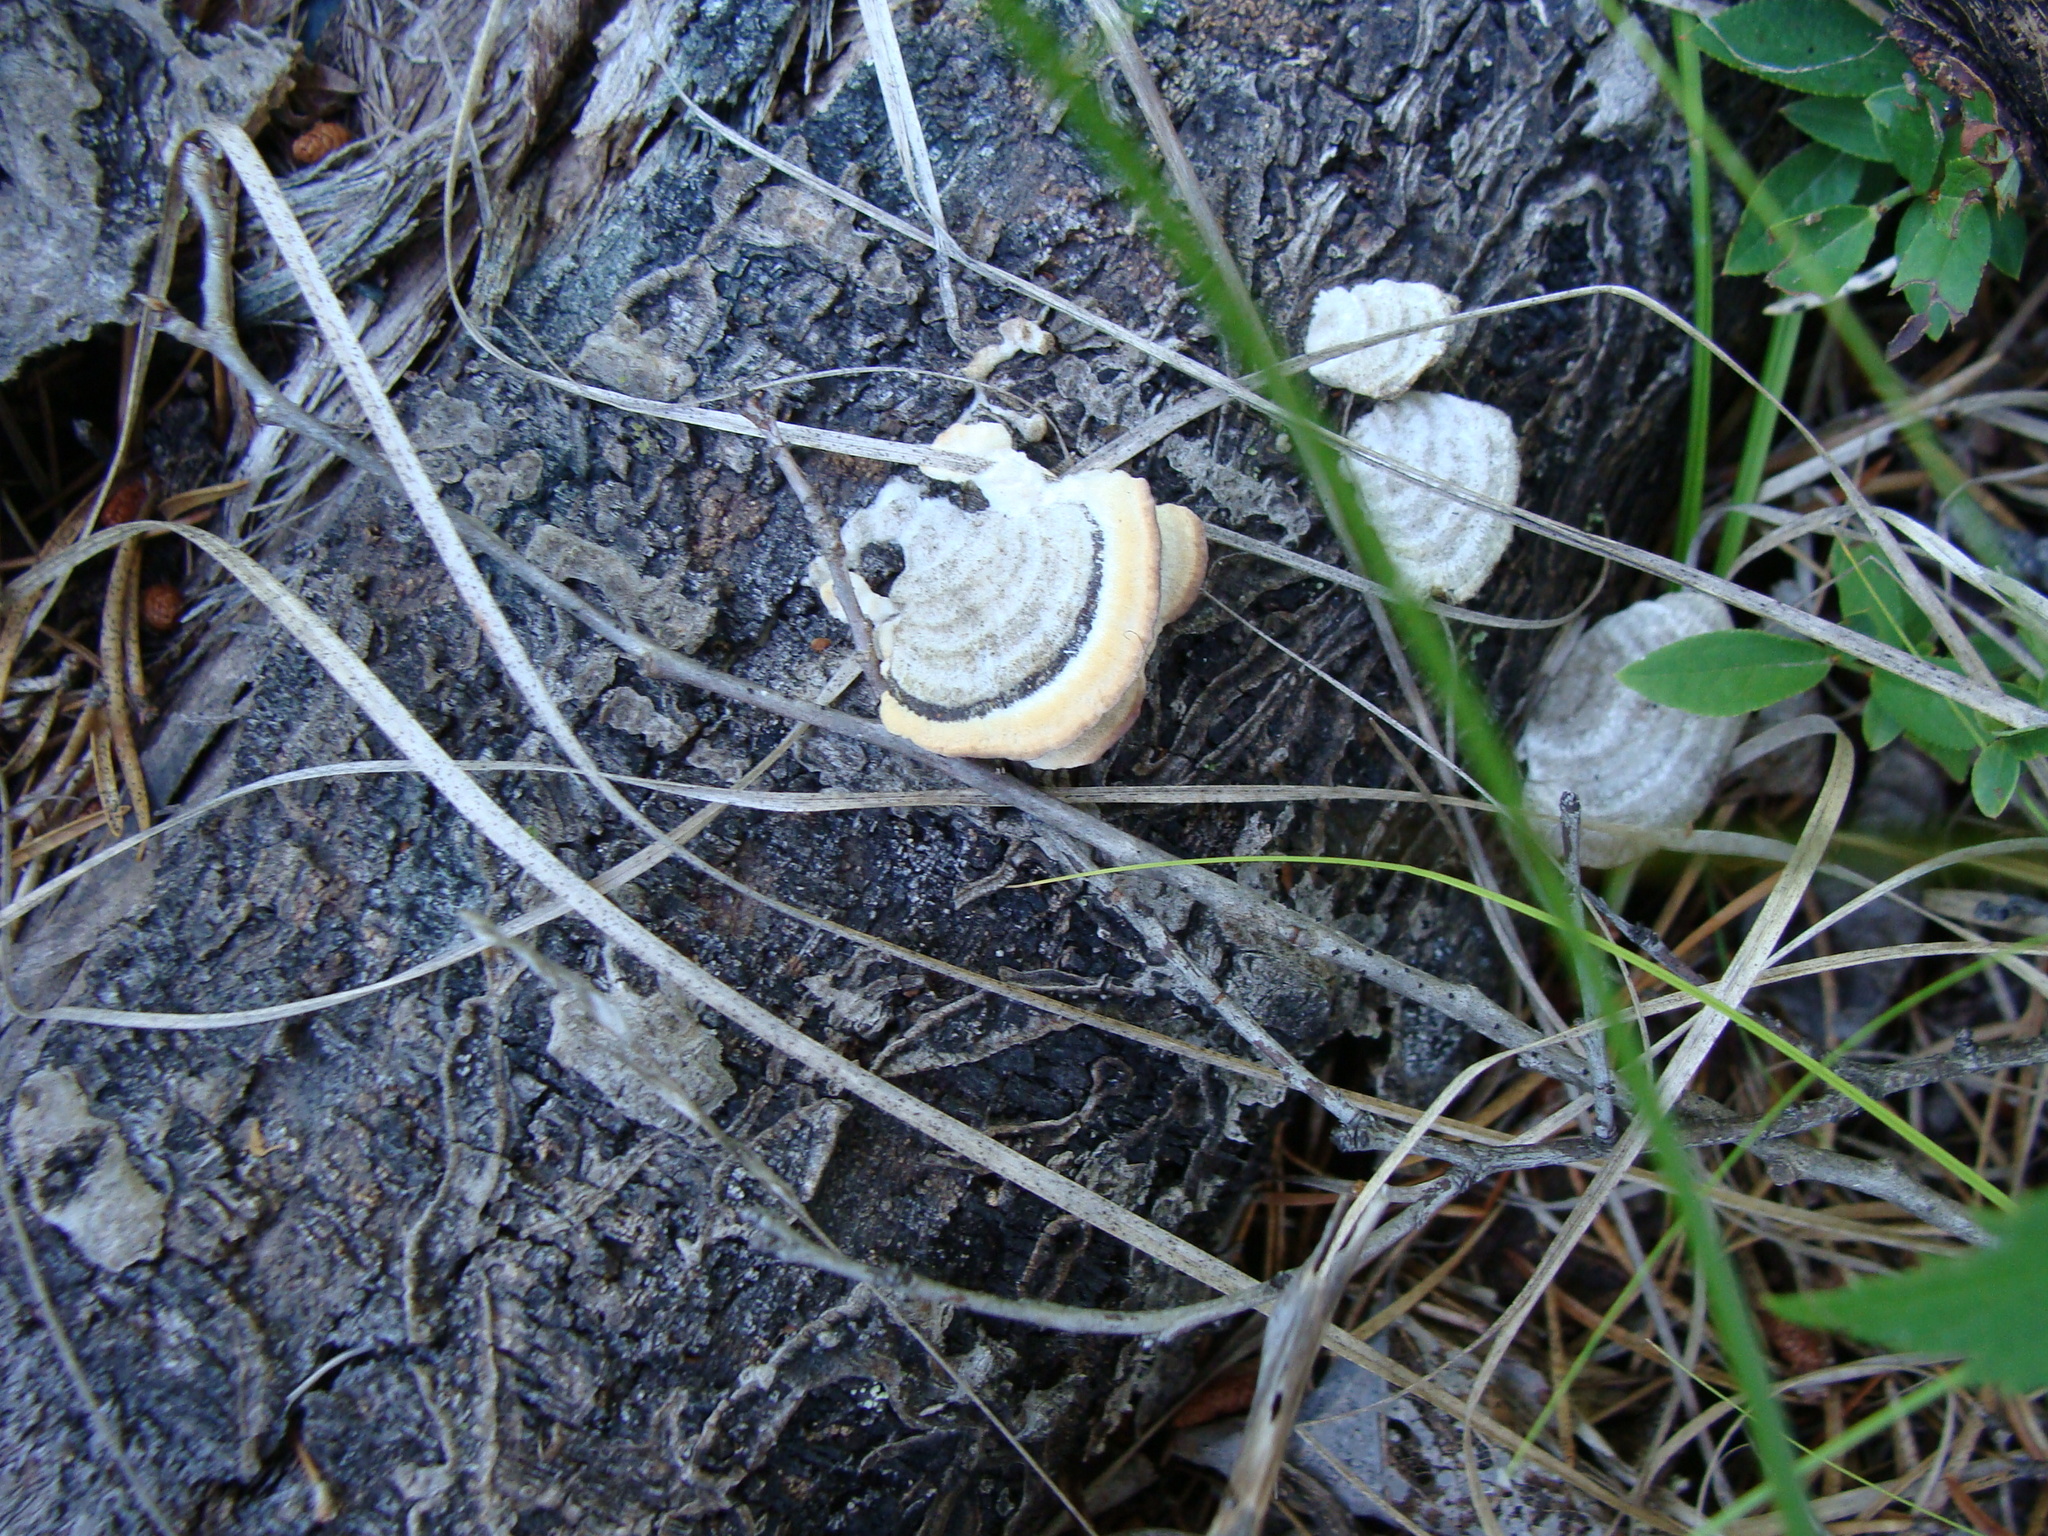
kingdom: Fungi
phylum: Basidiomycota
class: Agaricomycetes
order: Hymenochaetales
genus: Trichaptum
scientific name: Trichaptum biforme
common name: Violet-toothed polypore
